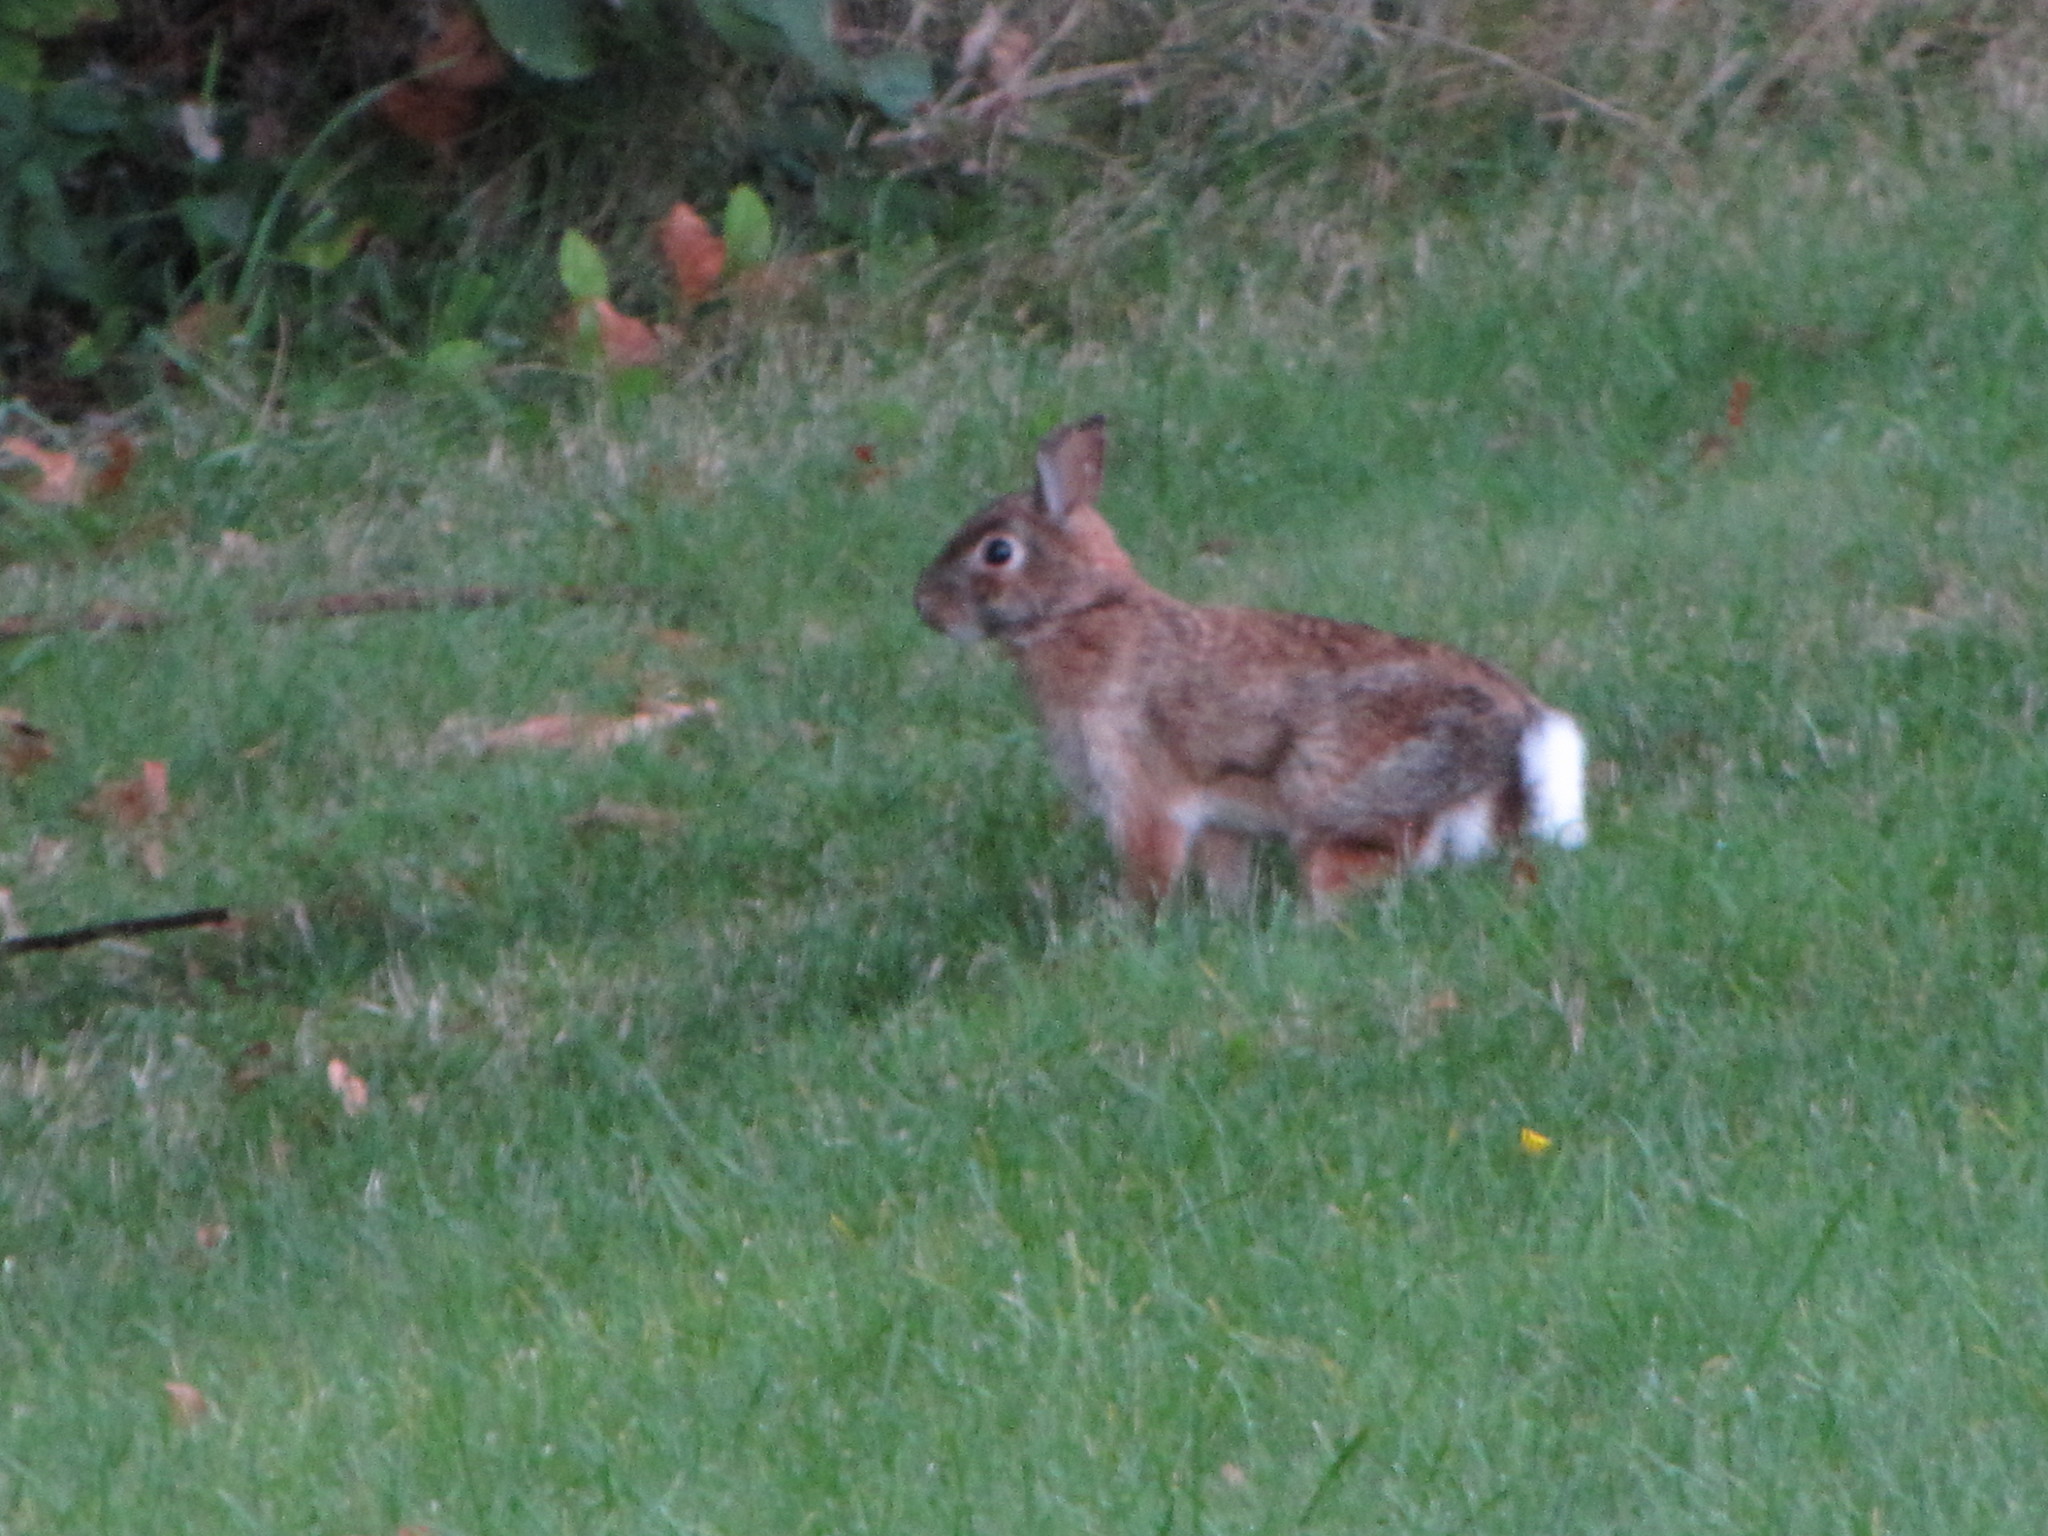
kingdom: Animalia
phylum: Chordata
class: Mammalia
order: Lagomorpha
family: Leporidae
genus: Sylvilagus
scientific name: Sylvilagus floridanus
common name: Eastern cottontail
